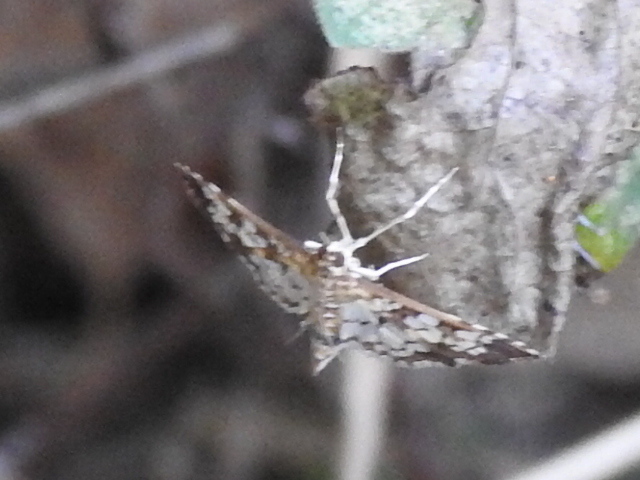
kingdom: Animalia
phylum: Arthropoda
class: Insecta
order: Lepidoptera
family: Crambidae
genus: Samea
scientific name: Samea ecclesialis
